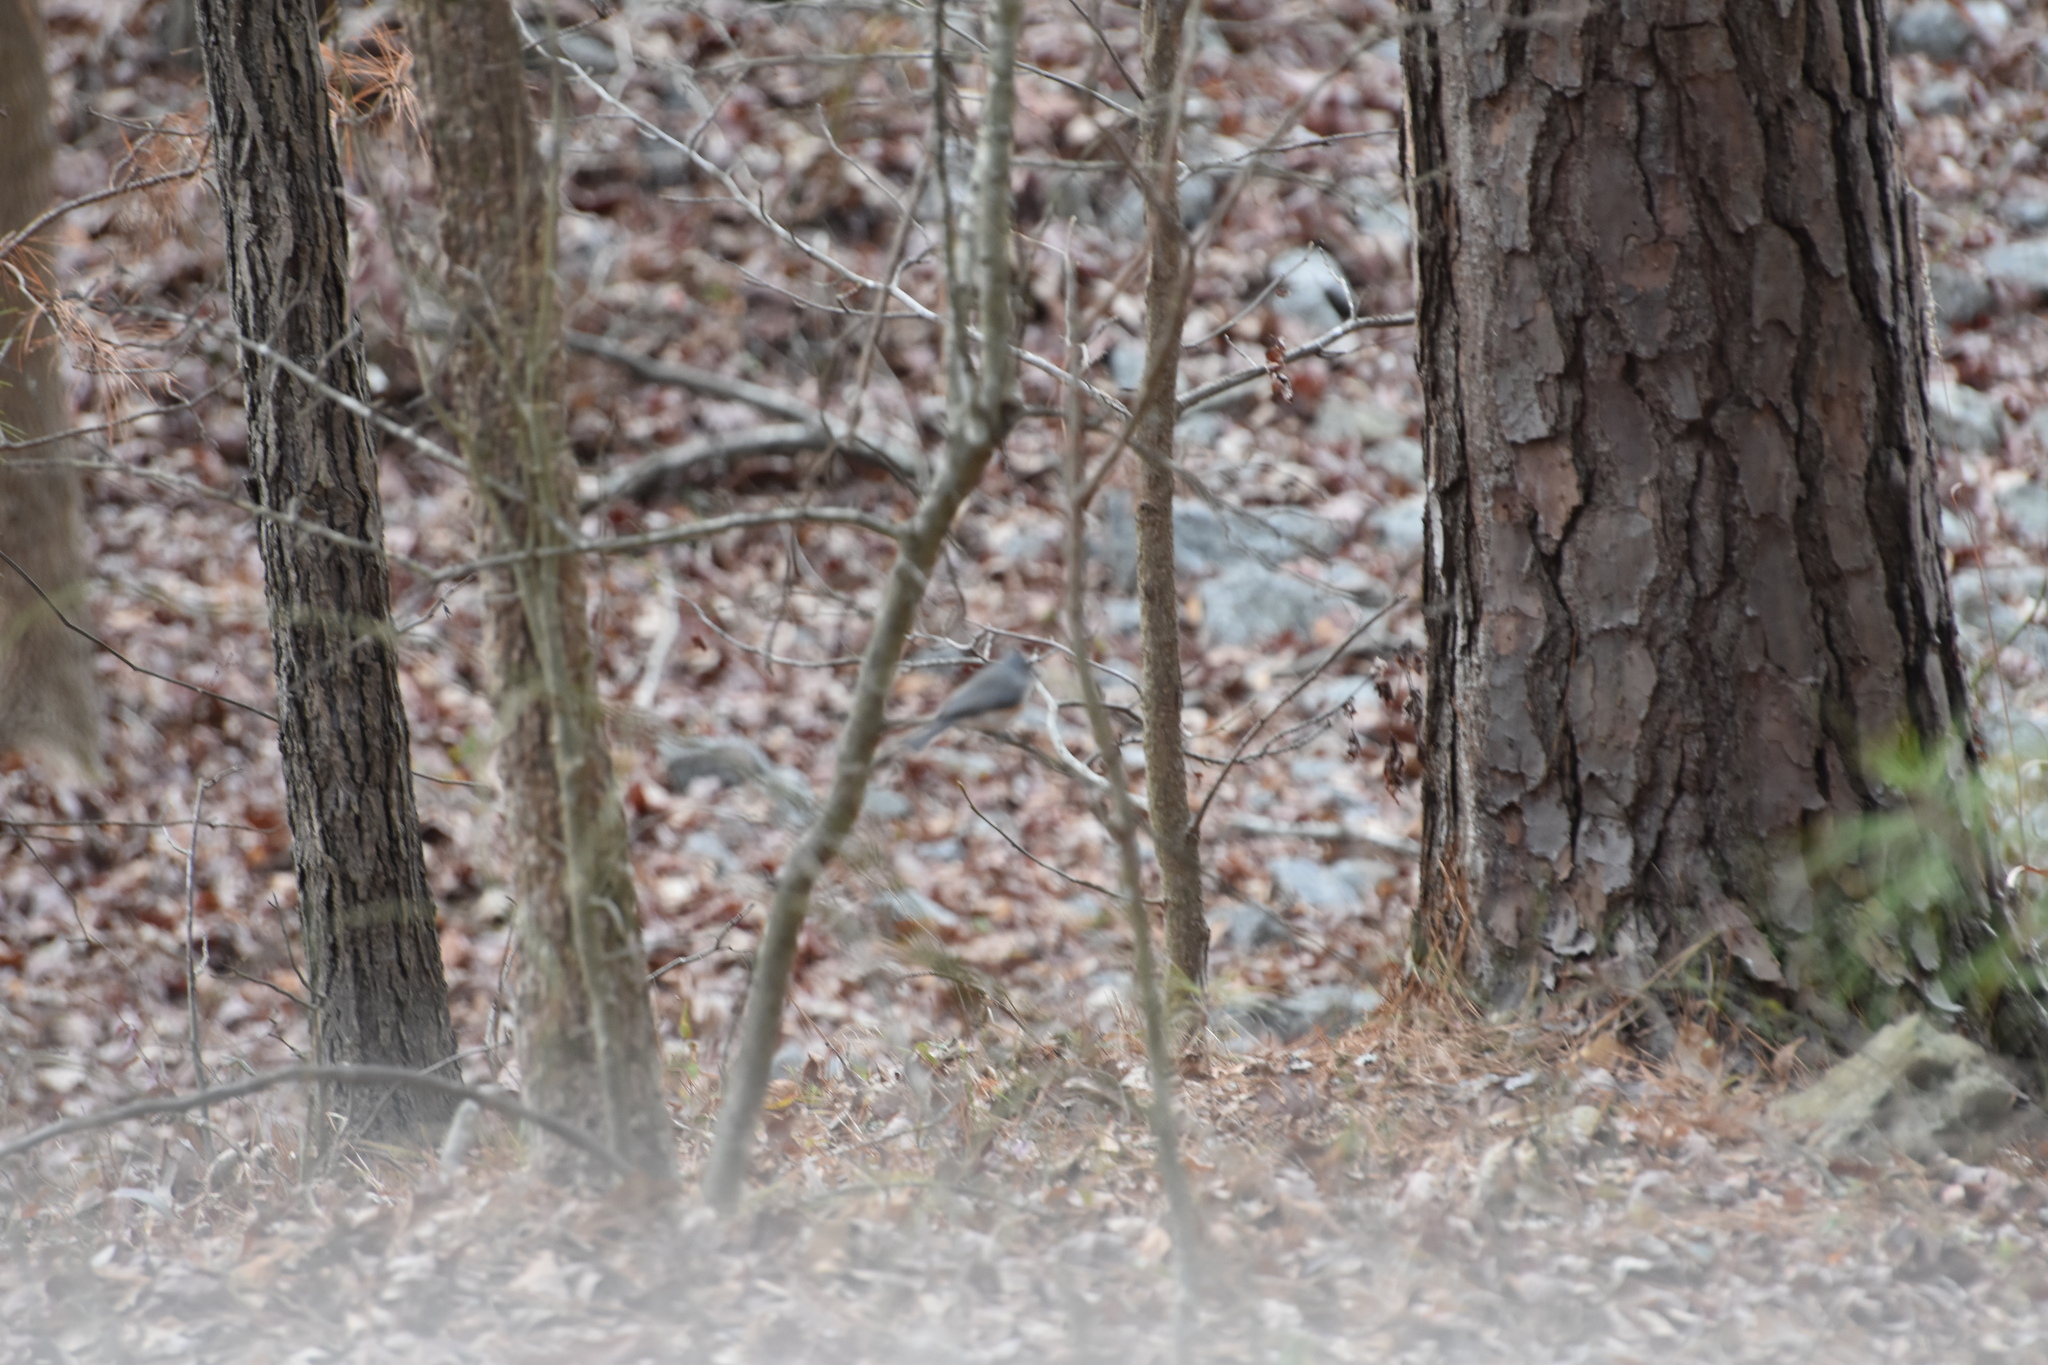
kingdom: Animalia
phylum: Chordata
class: Aves
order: Passeriformes
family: Paridae
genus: Baeolophus
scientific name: Baeolophus bicolor
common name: Tufted titmouse
